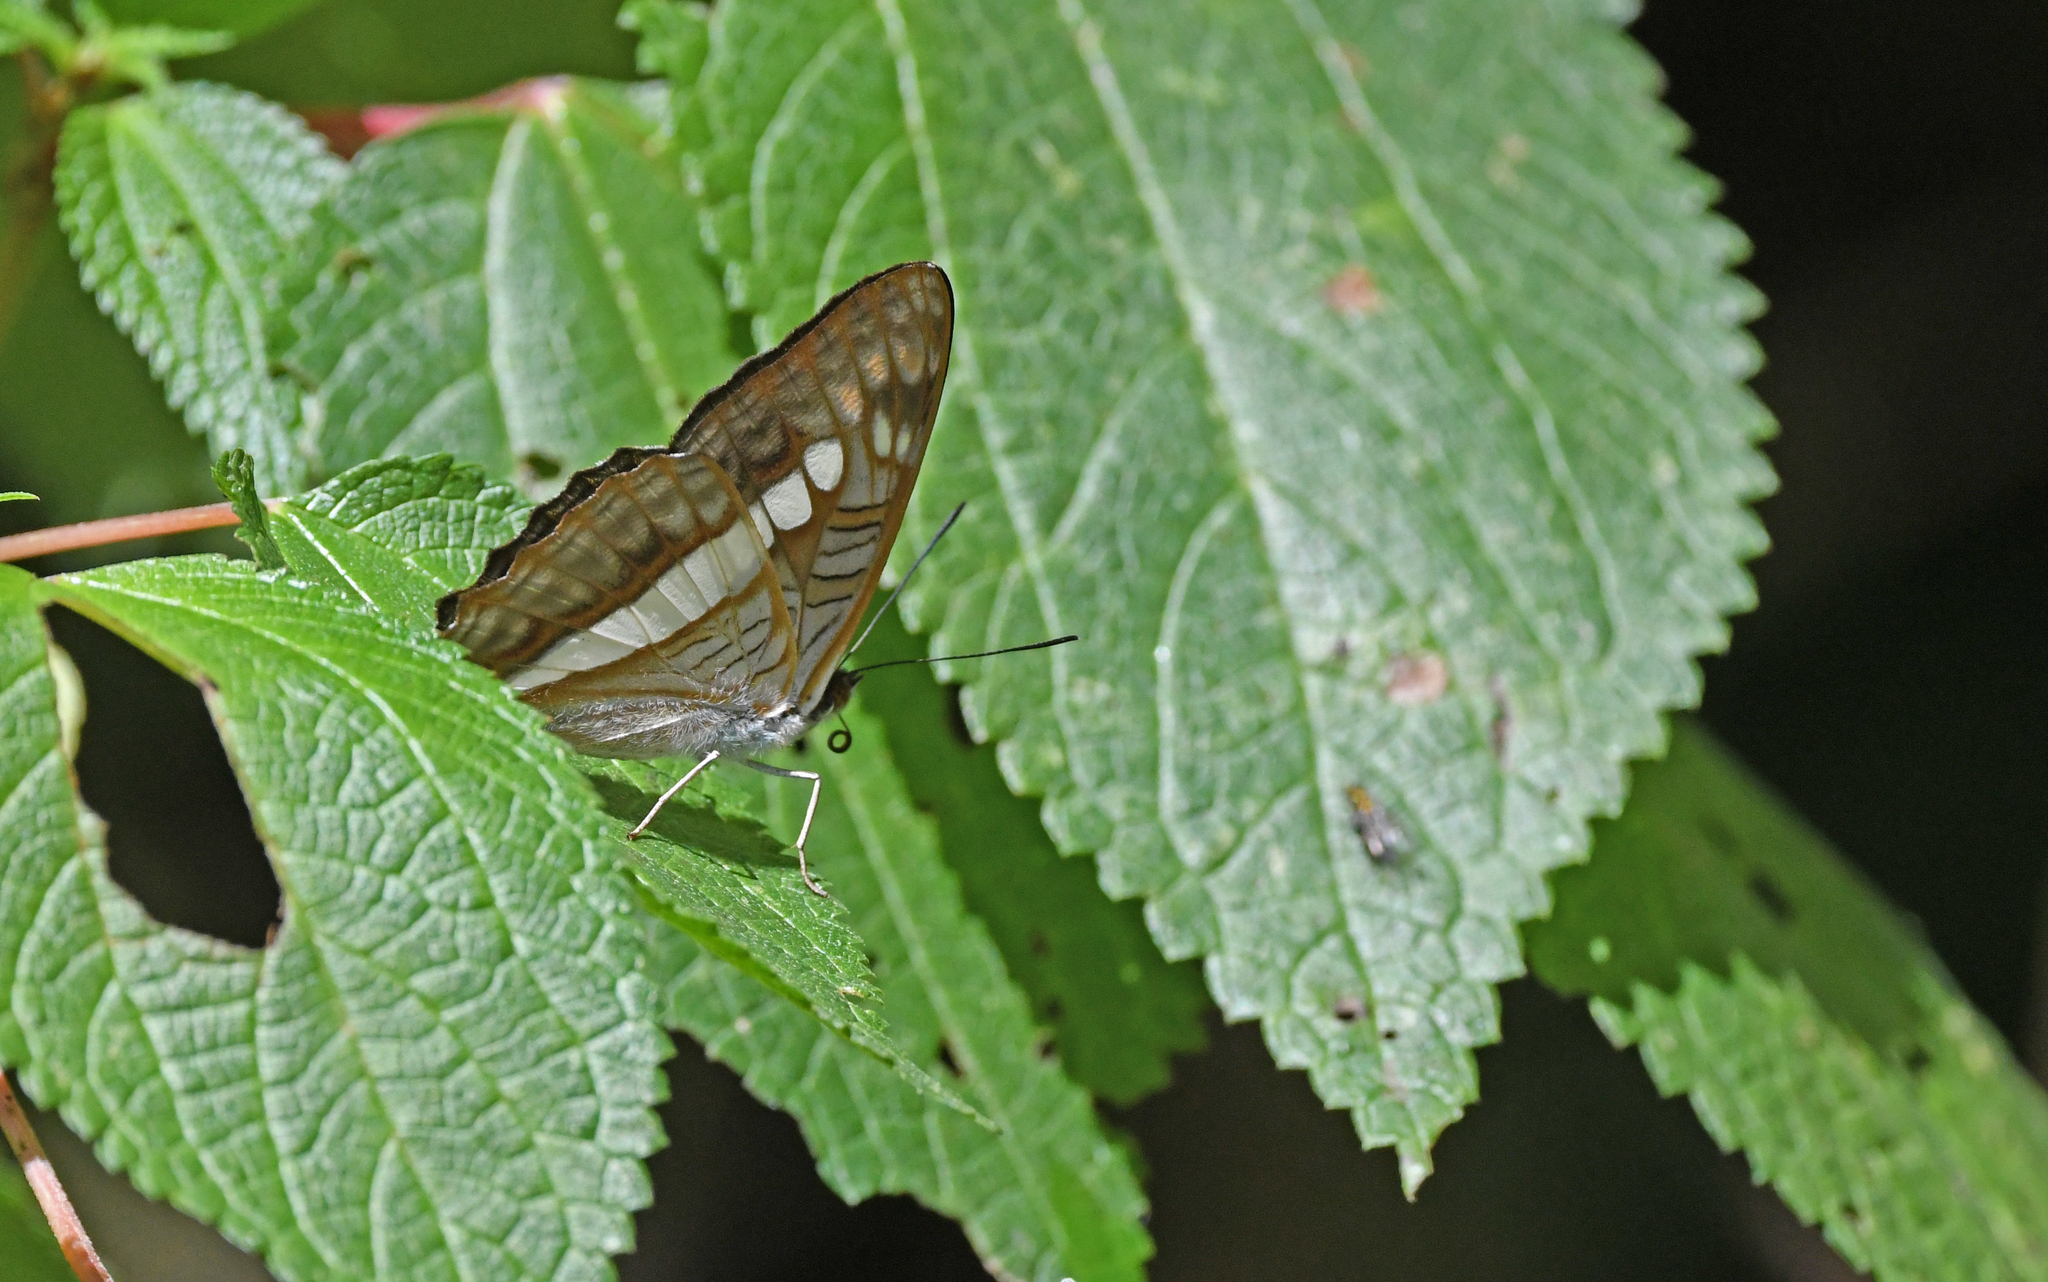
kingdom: Animalia
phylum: Arthropoda
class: Insecta
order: Lepidoptera
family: Nymphalidae
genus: Limenitis
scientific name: Limenitis alala
